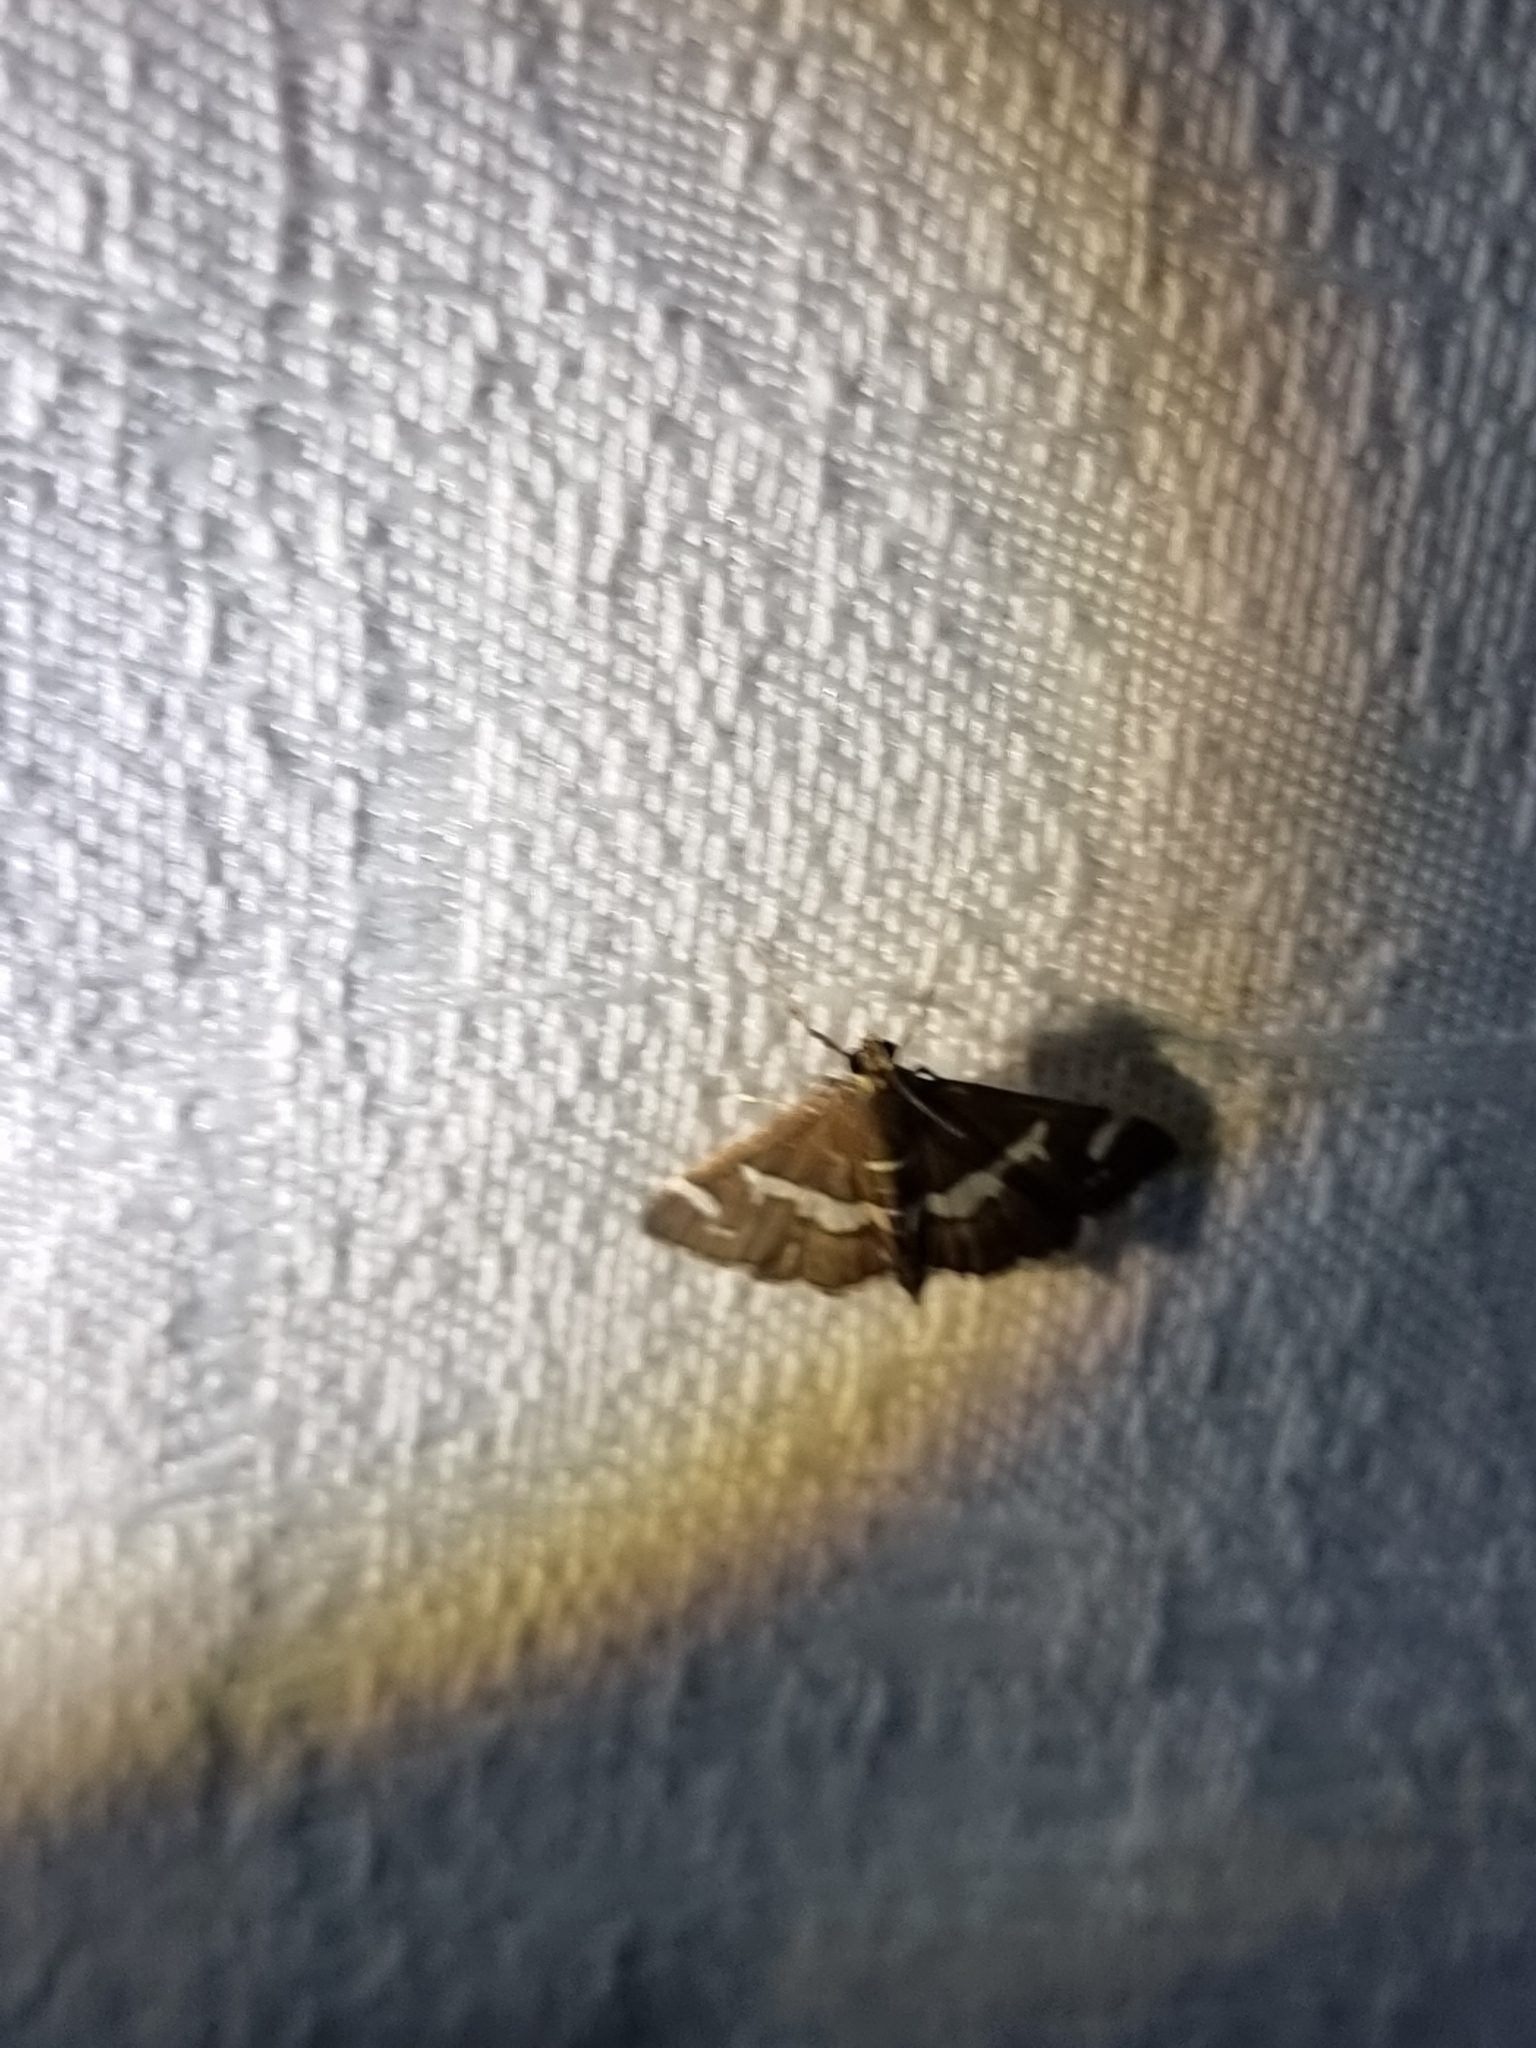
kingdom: Animalia
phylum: Arthropoda
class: Insecta
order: Lepidoptera
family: Crambidae
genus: Spoladea
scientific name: Spoladea recurvalis
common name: Beet webworm moth
